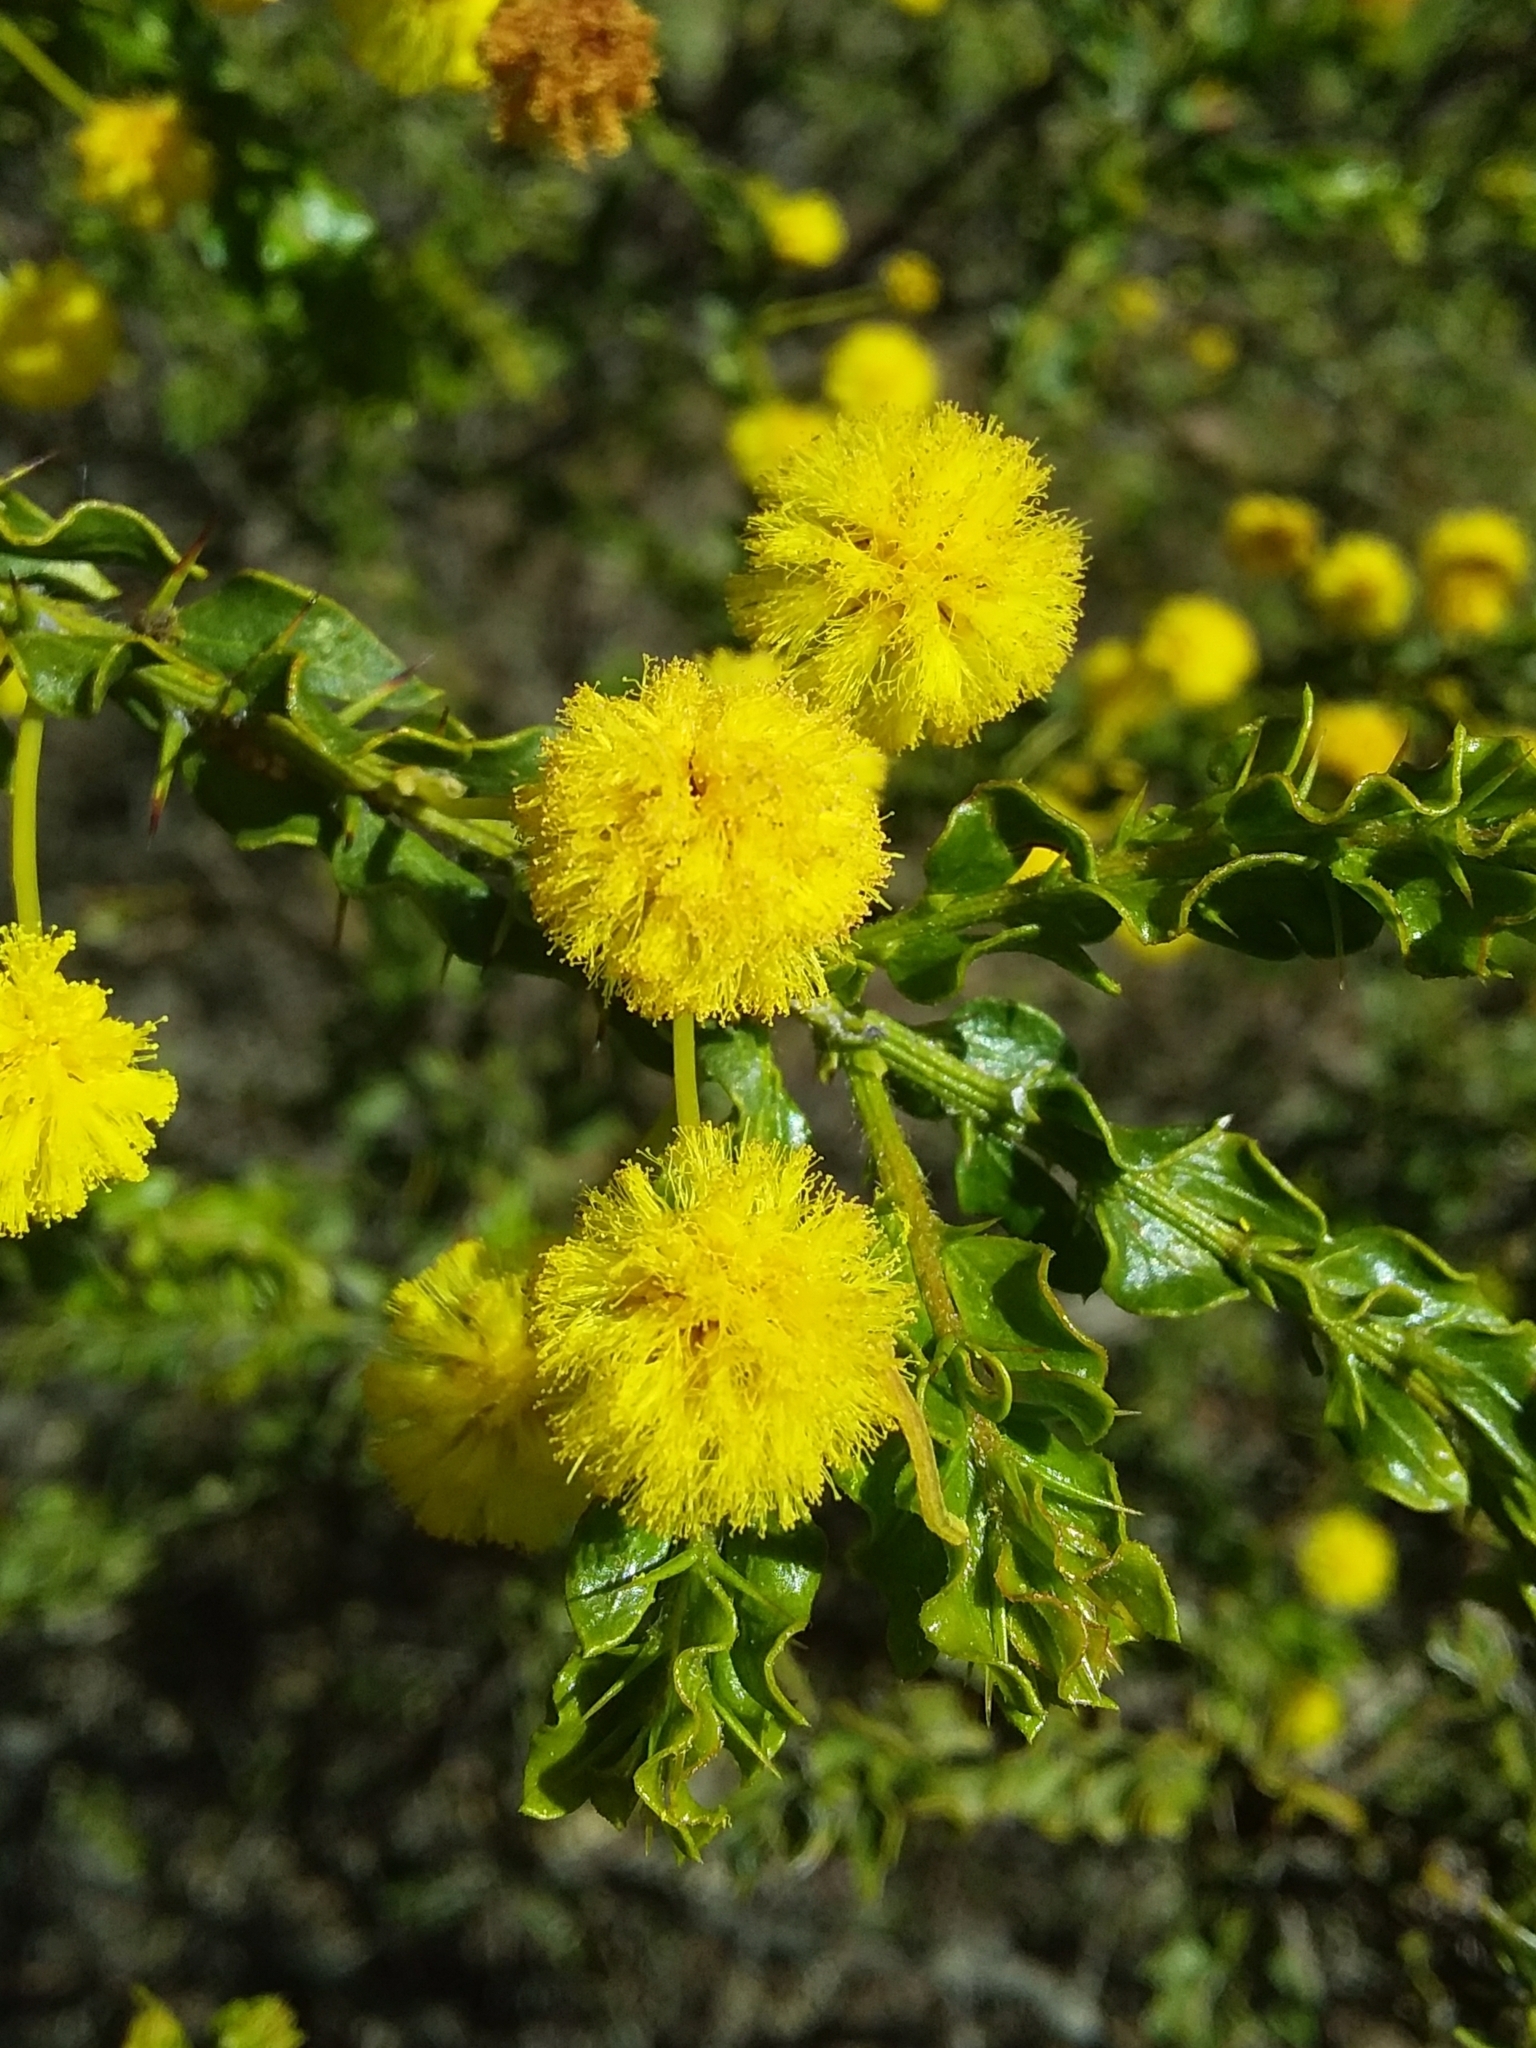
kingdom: Plantae
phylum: Tracheophyta
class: Magnoliopsida
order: Fabales
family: Fabaceae
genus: Acacia
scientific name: Acacia paradoxa
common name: Paradox acacia
